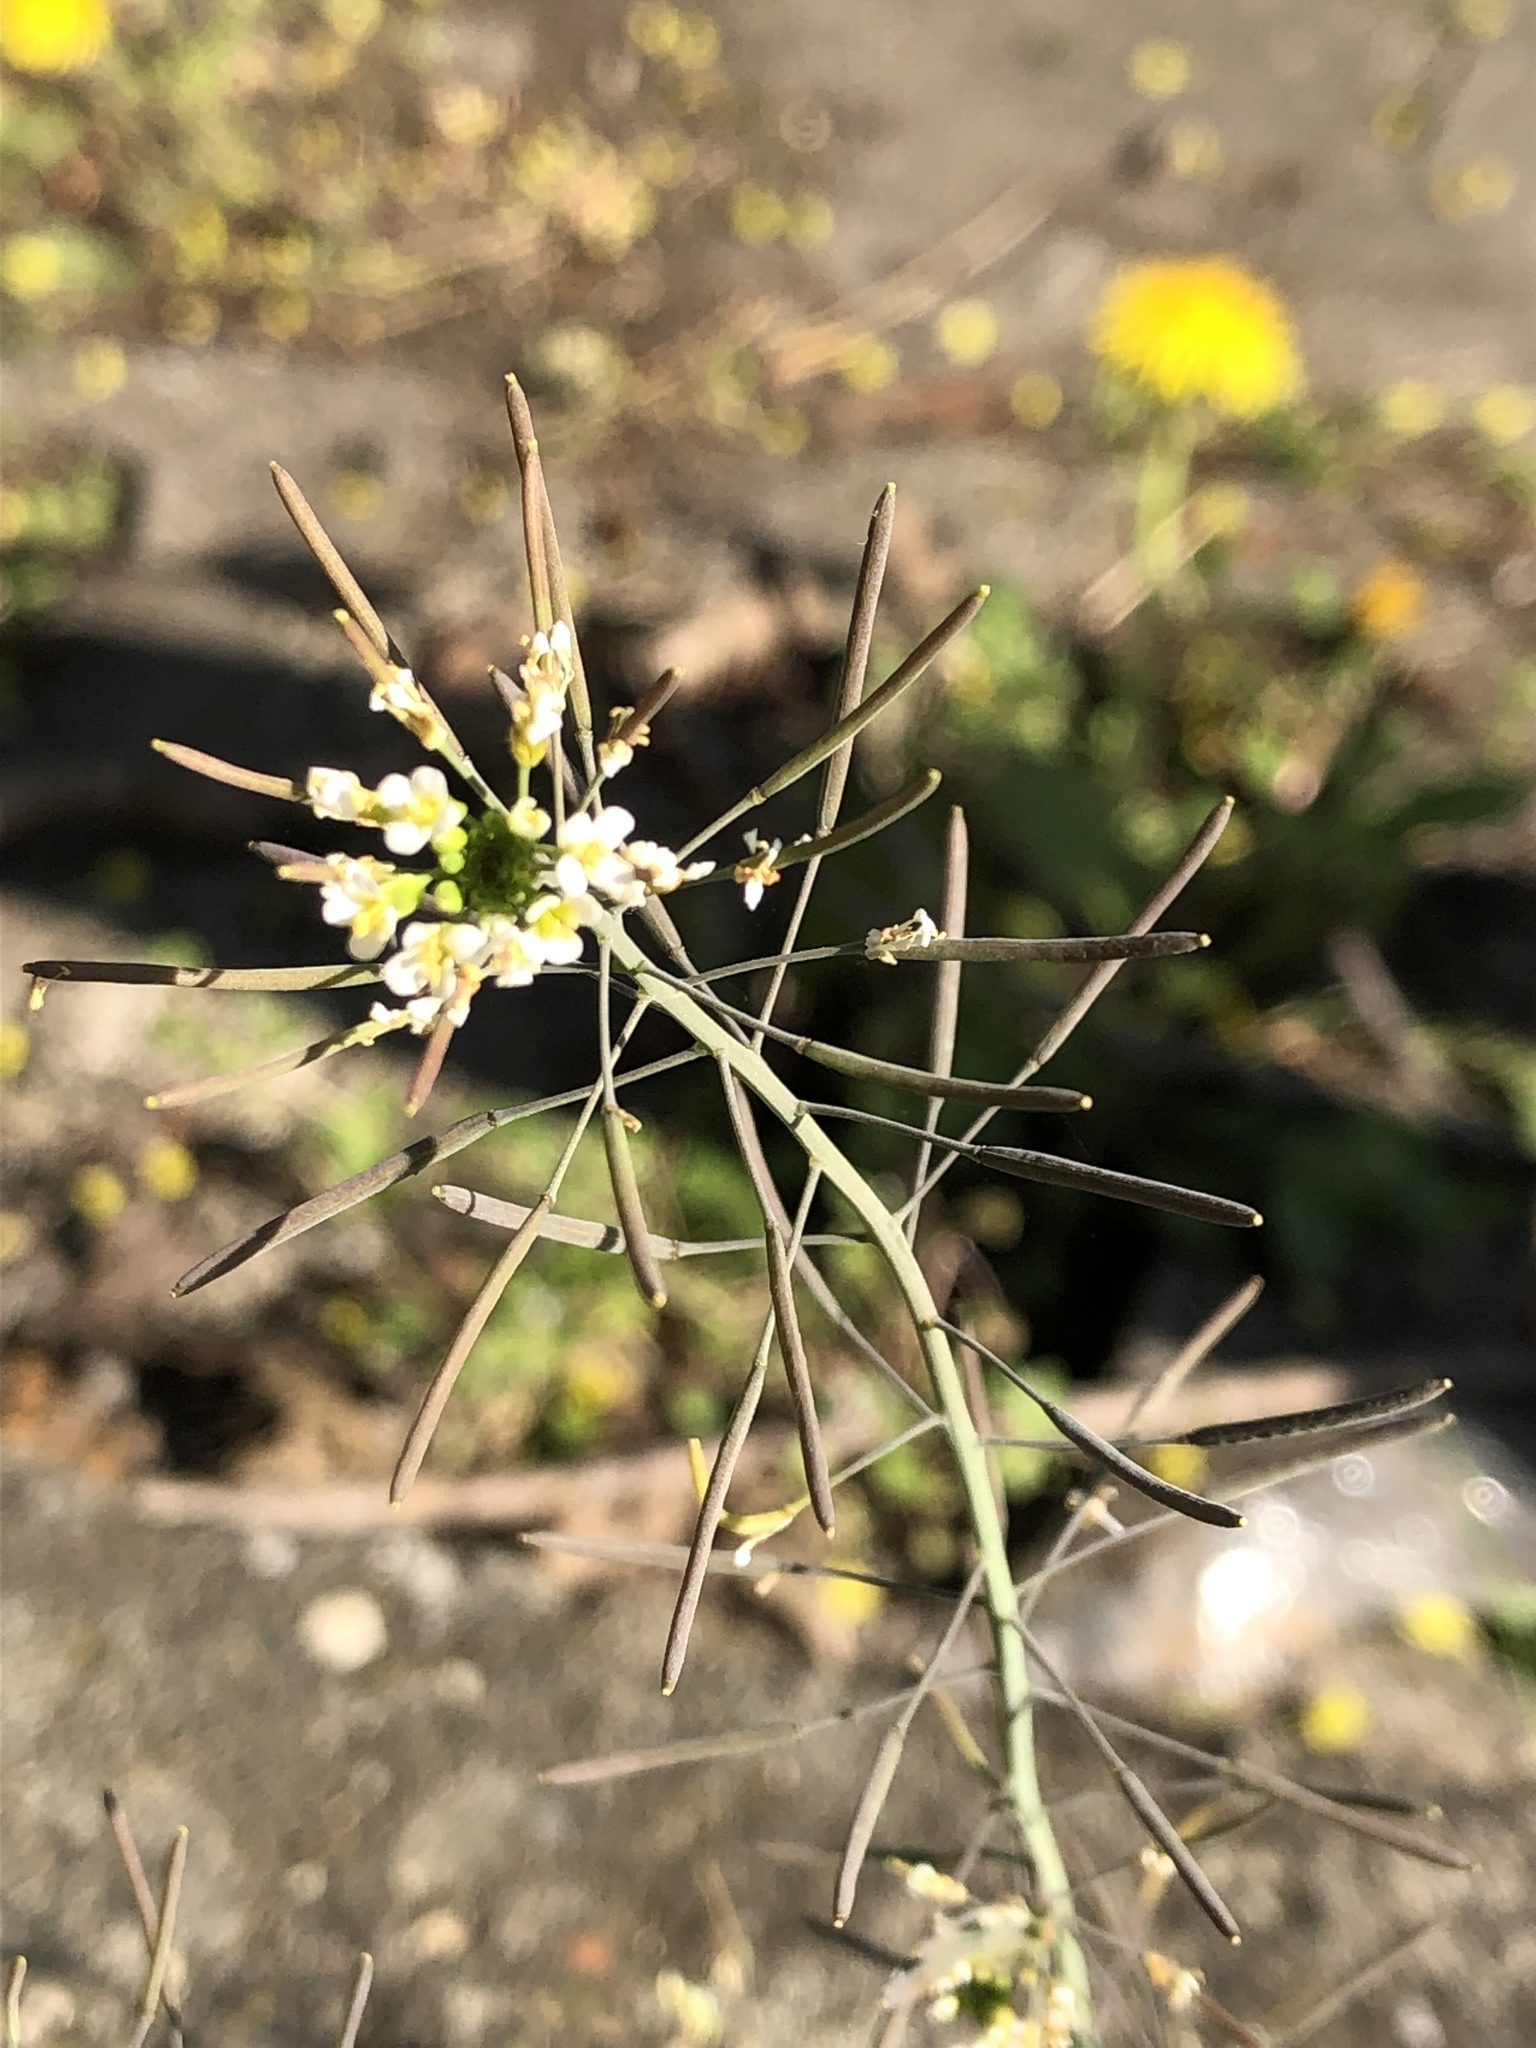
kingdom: Plantae
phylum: Tracheophyta
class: Magnoliopsida
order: Brassicales
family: Brassicaceae
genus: Arabidopsis
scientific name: Arabidopsis thaliana
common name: Thale cress
